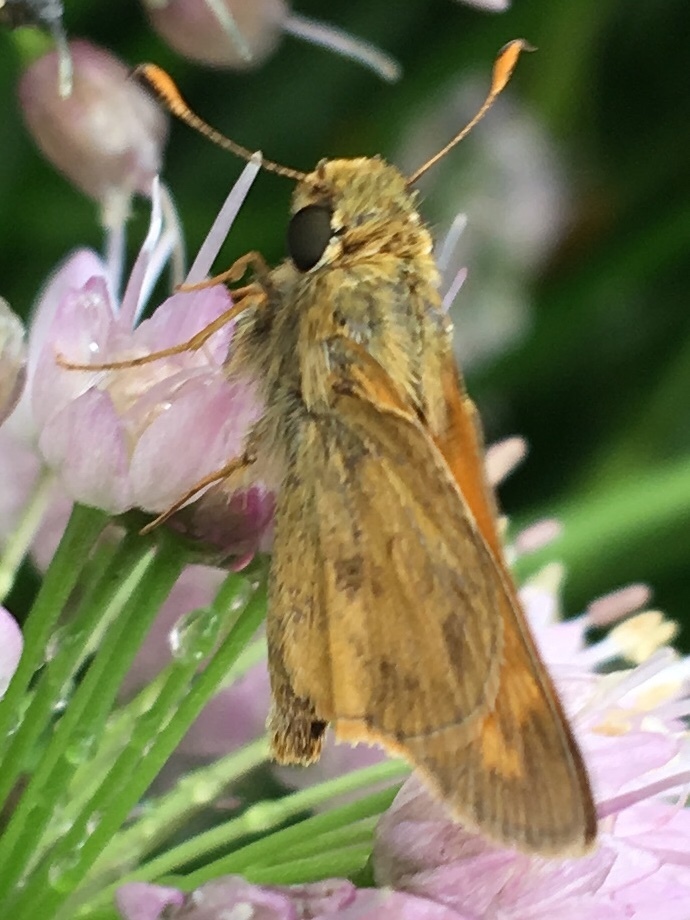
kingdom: Animalia
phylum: Arthropoda
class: Insecta
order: Lepidoptera
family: Hesperiidae
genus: Atalopedes
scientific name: Atalopedes
